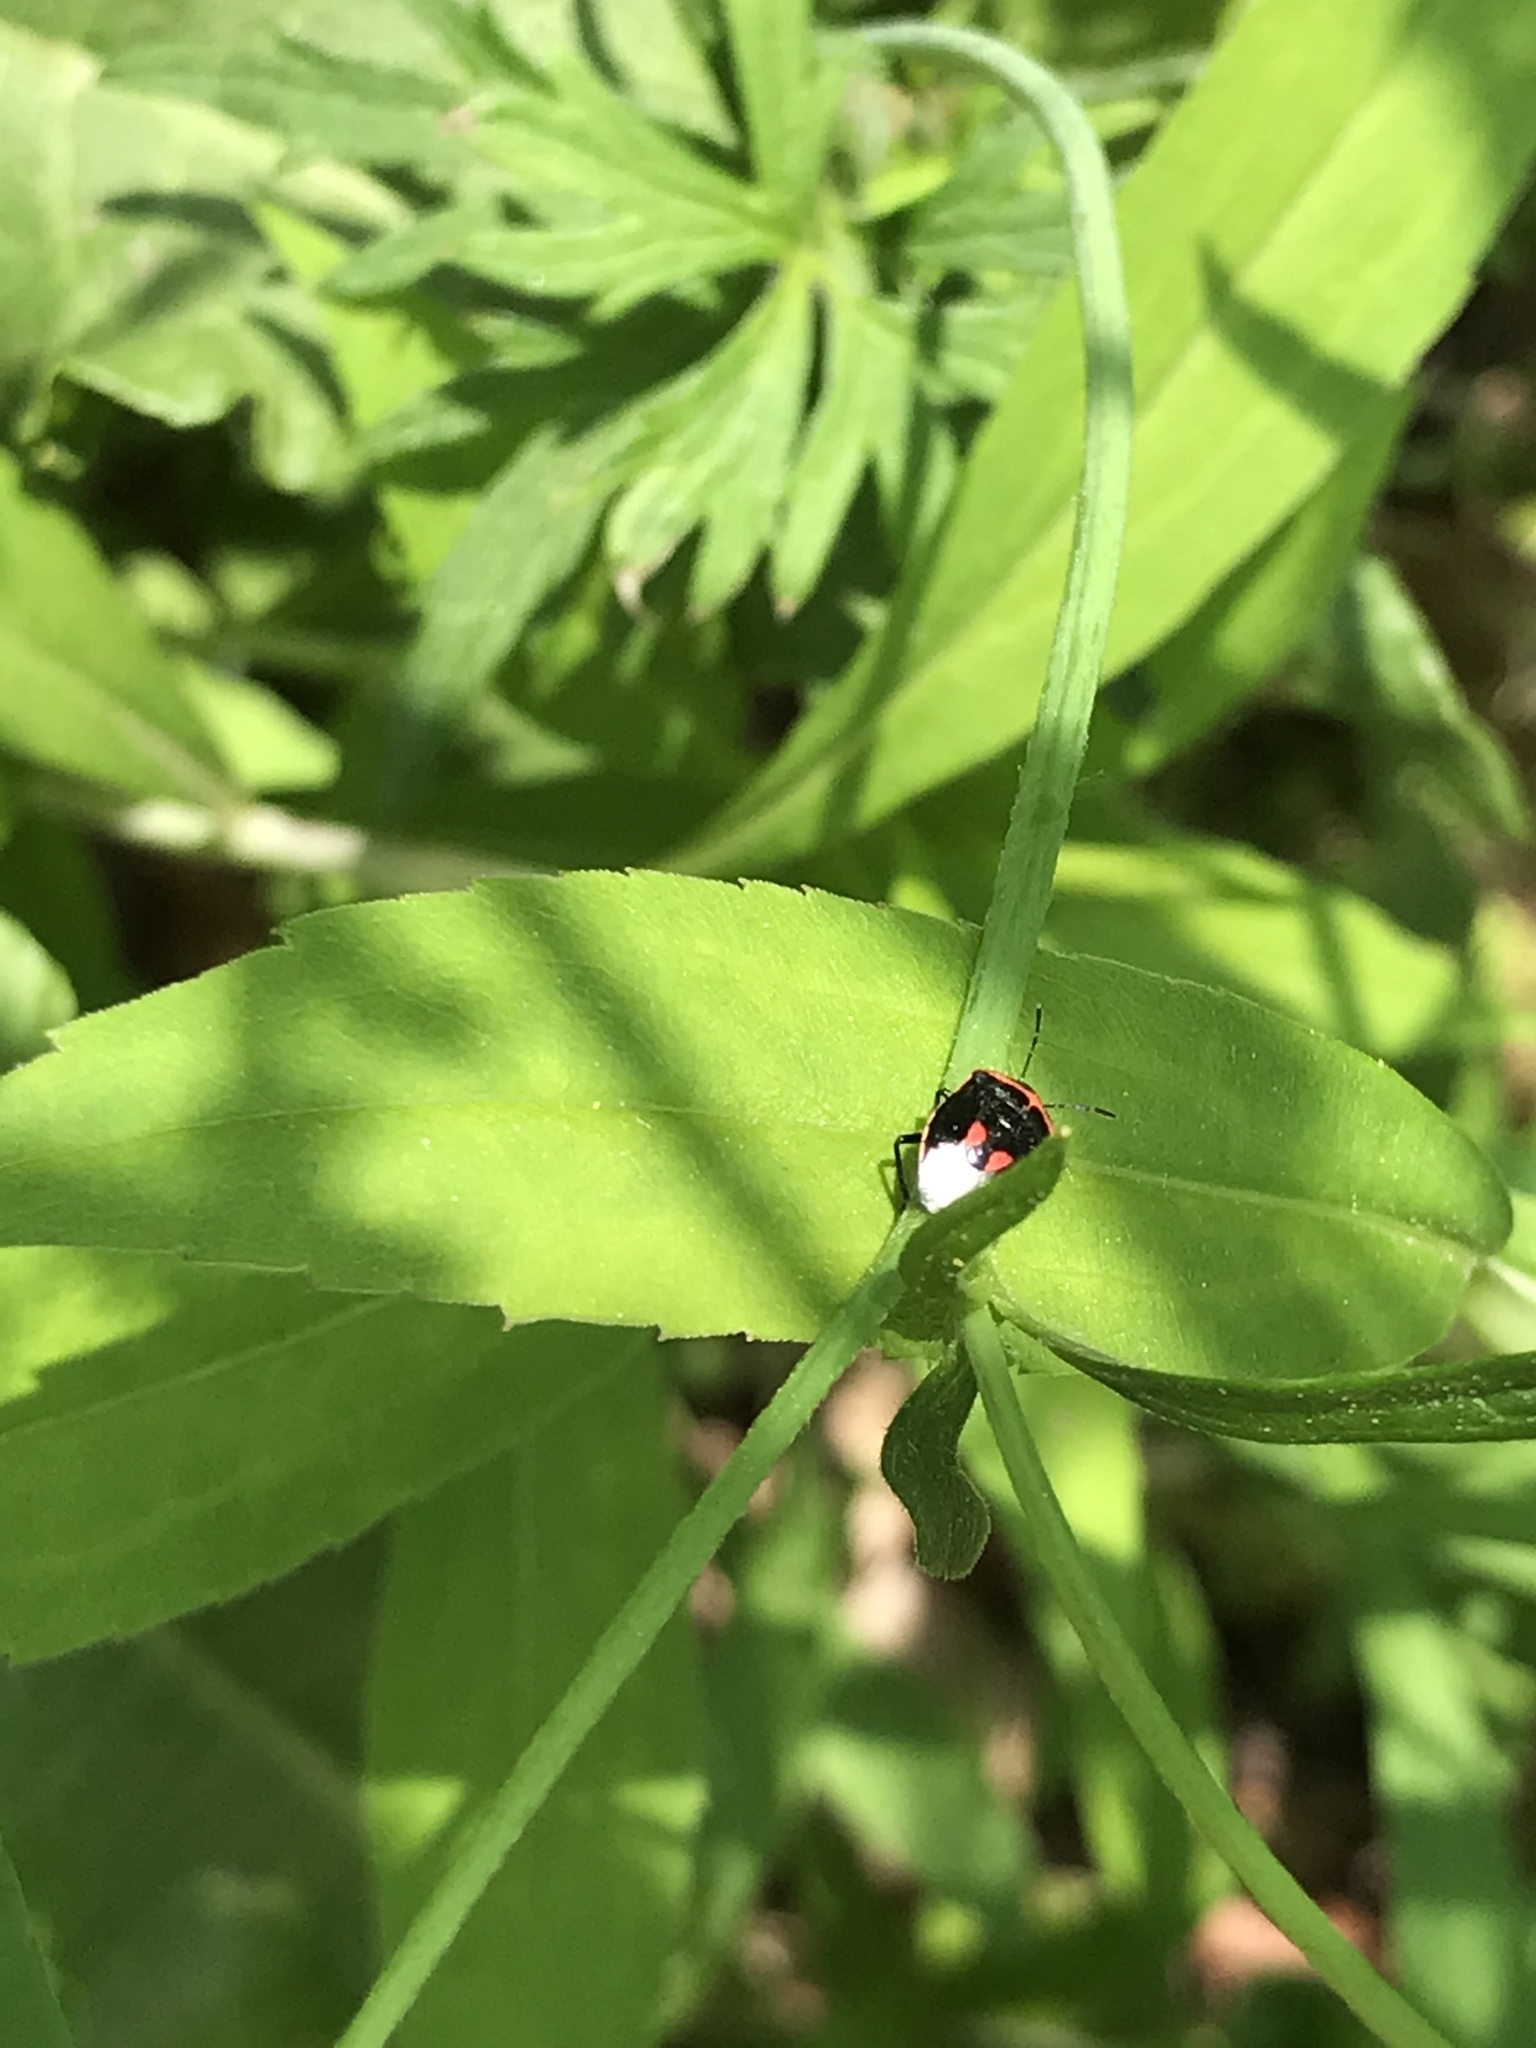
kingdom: Animalia
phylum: Arthropoda
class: Insecta
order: Hemiptera
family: Pentatomidae
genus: Cosmopepla
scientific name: Cosmopepla lintneriana
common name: Twice-stabbed stink bug
